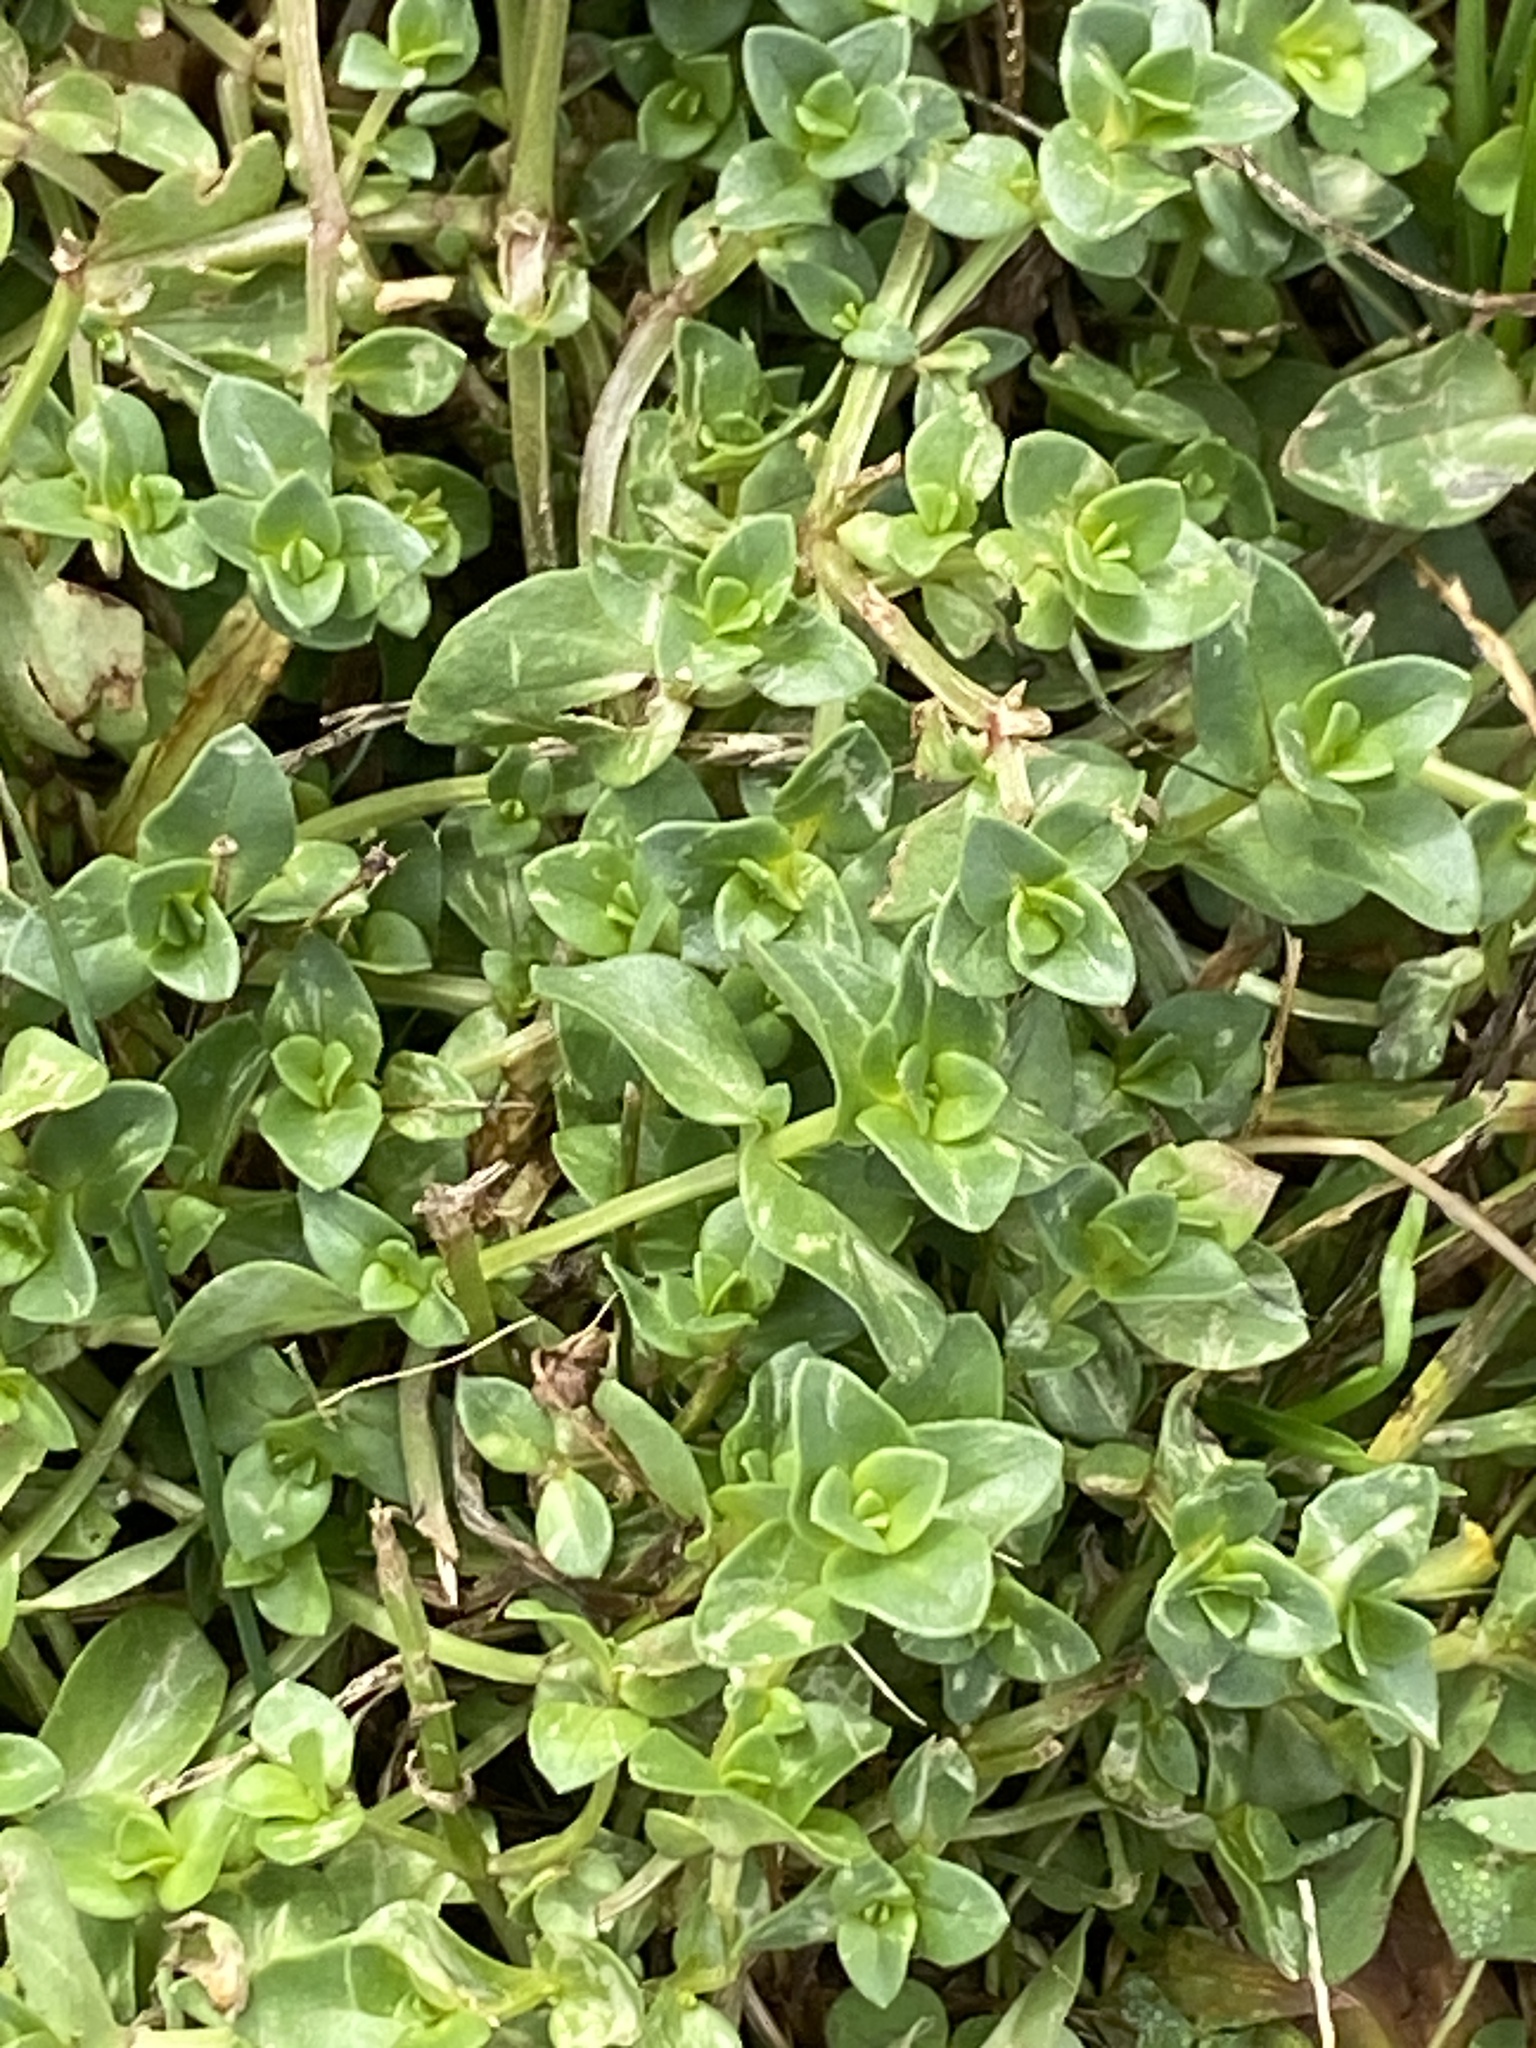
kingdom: Plantae
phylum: Tracheophyta
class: Magnoliopsida
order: Lamiales
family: Plantaginaceae
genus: Veronica
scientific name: Veronica serpyllifolia
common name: Thyme-leaved speedwell
